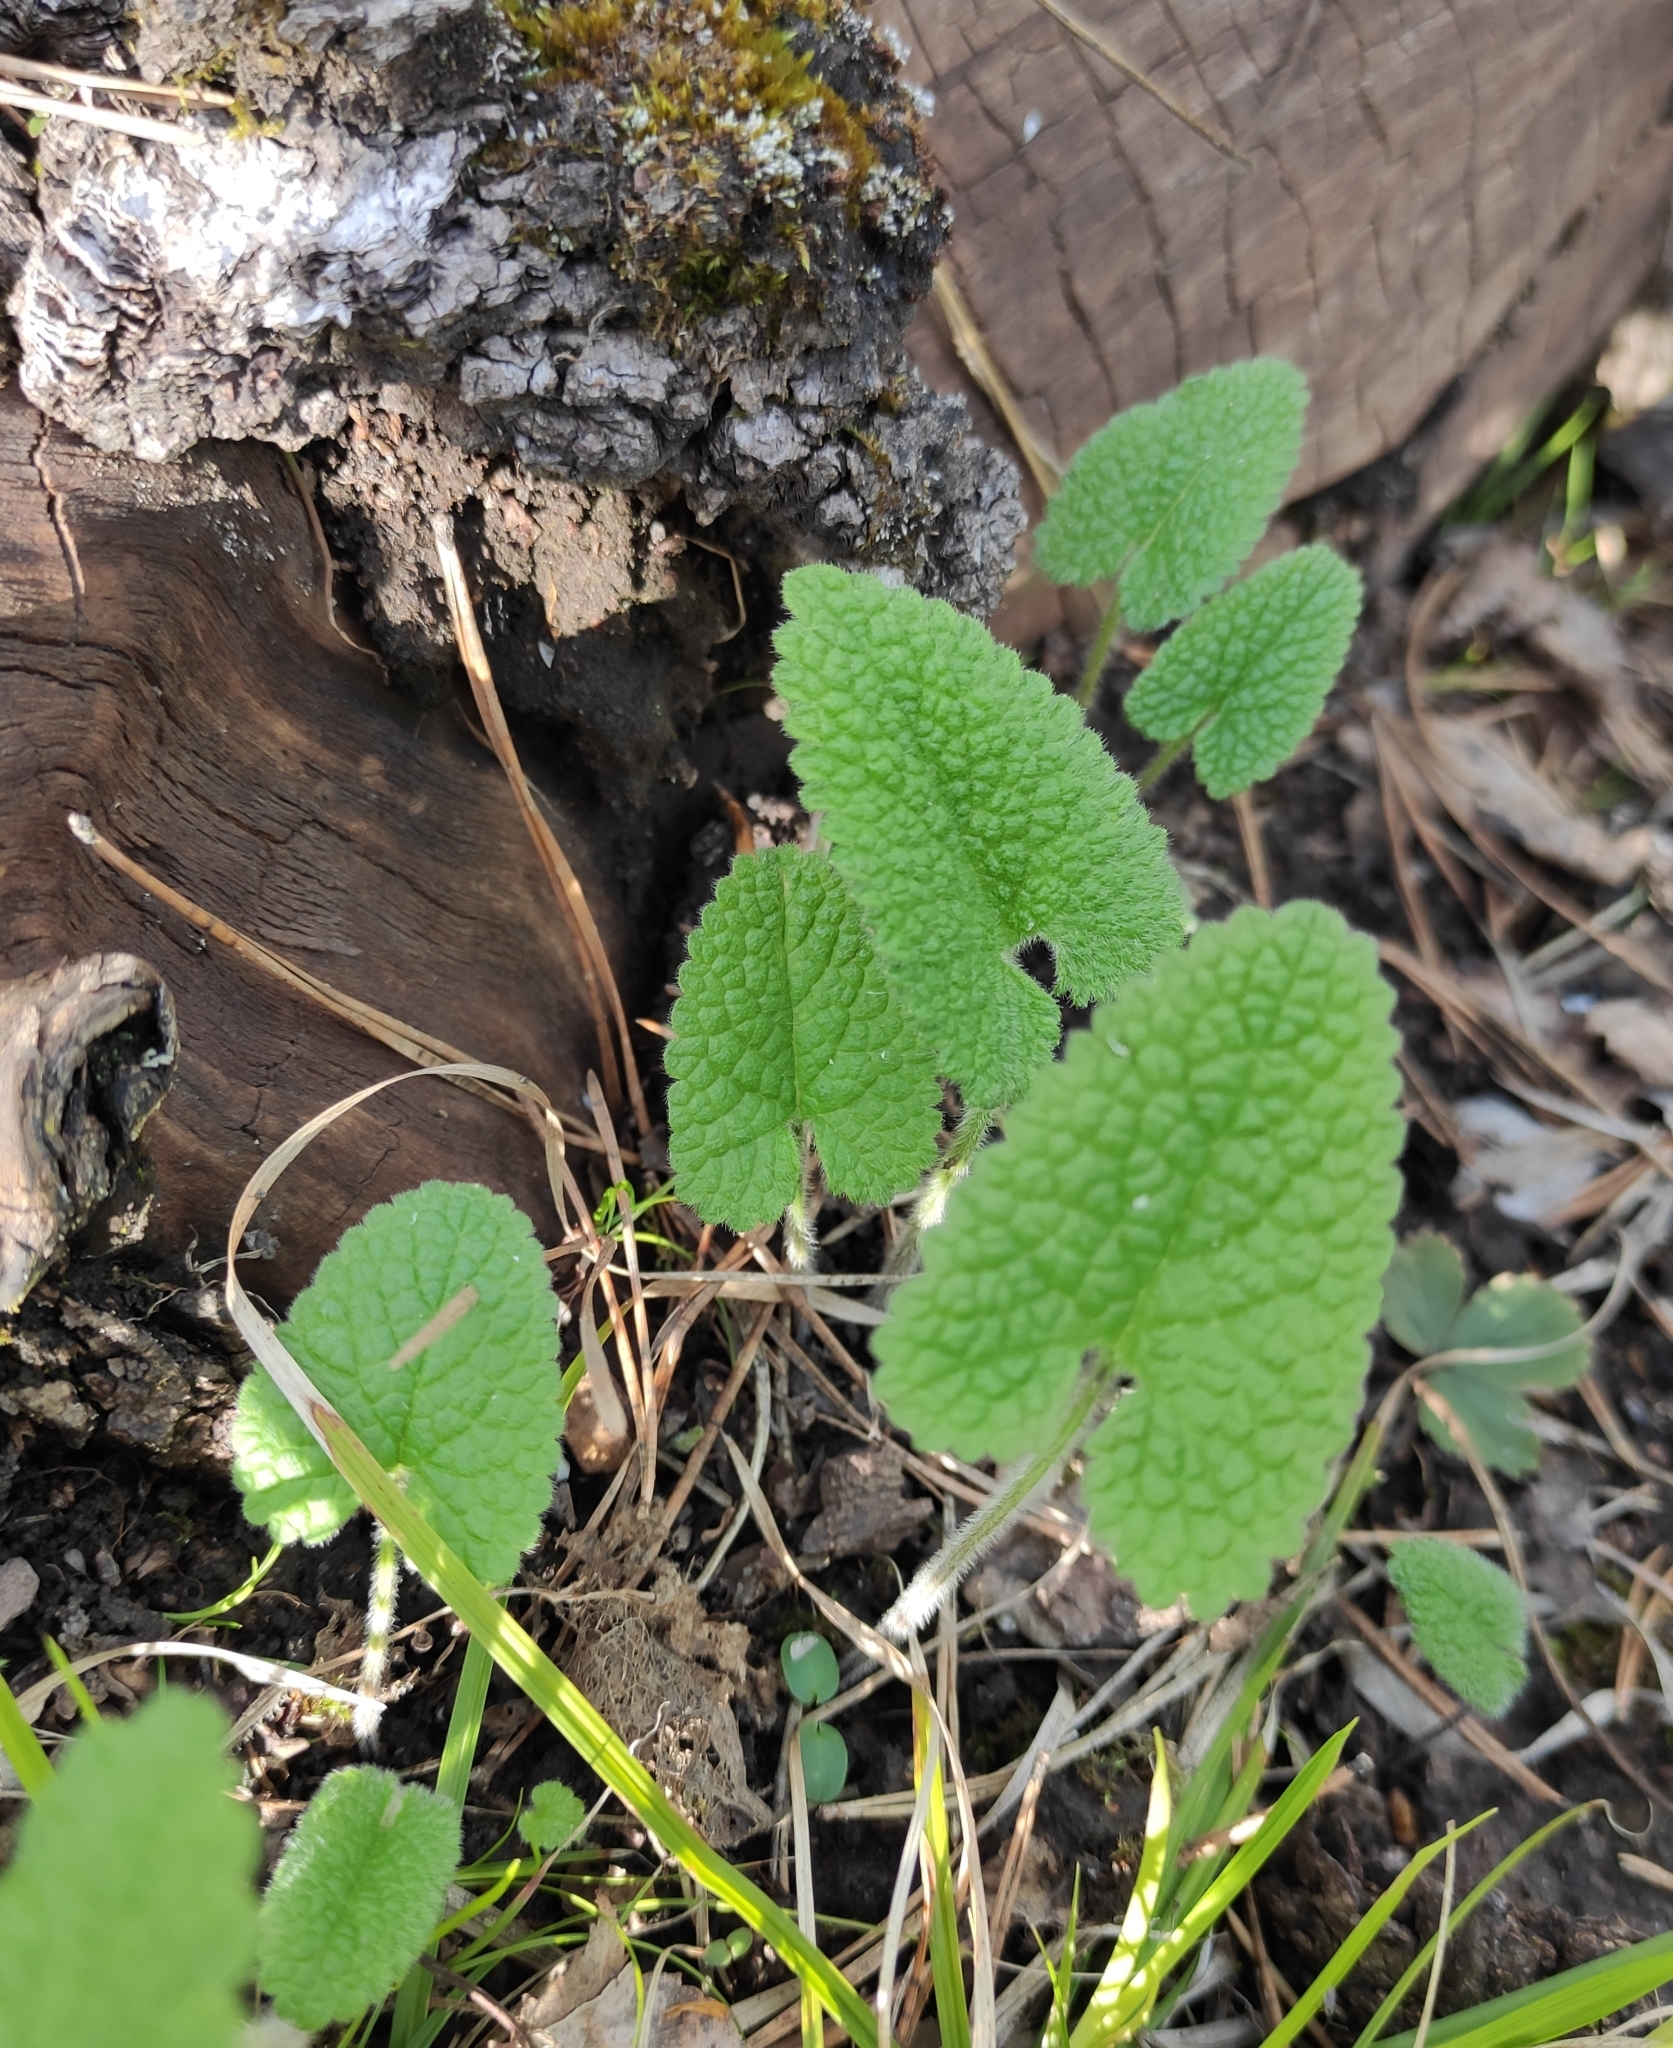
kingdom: Plantae
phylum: Tracheophyta
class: Magnoliopsida
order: Lamiales
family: Lamiaceae
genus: Phlomoides
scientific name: Phlomoides tuberosa
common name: Tuberous jerusalem sage
